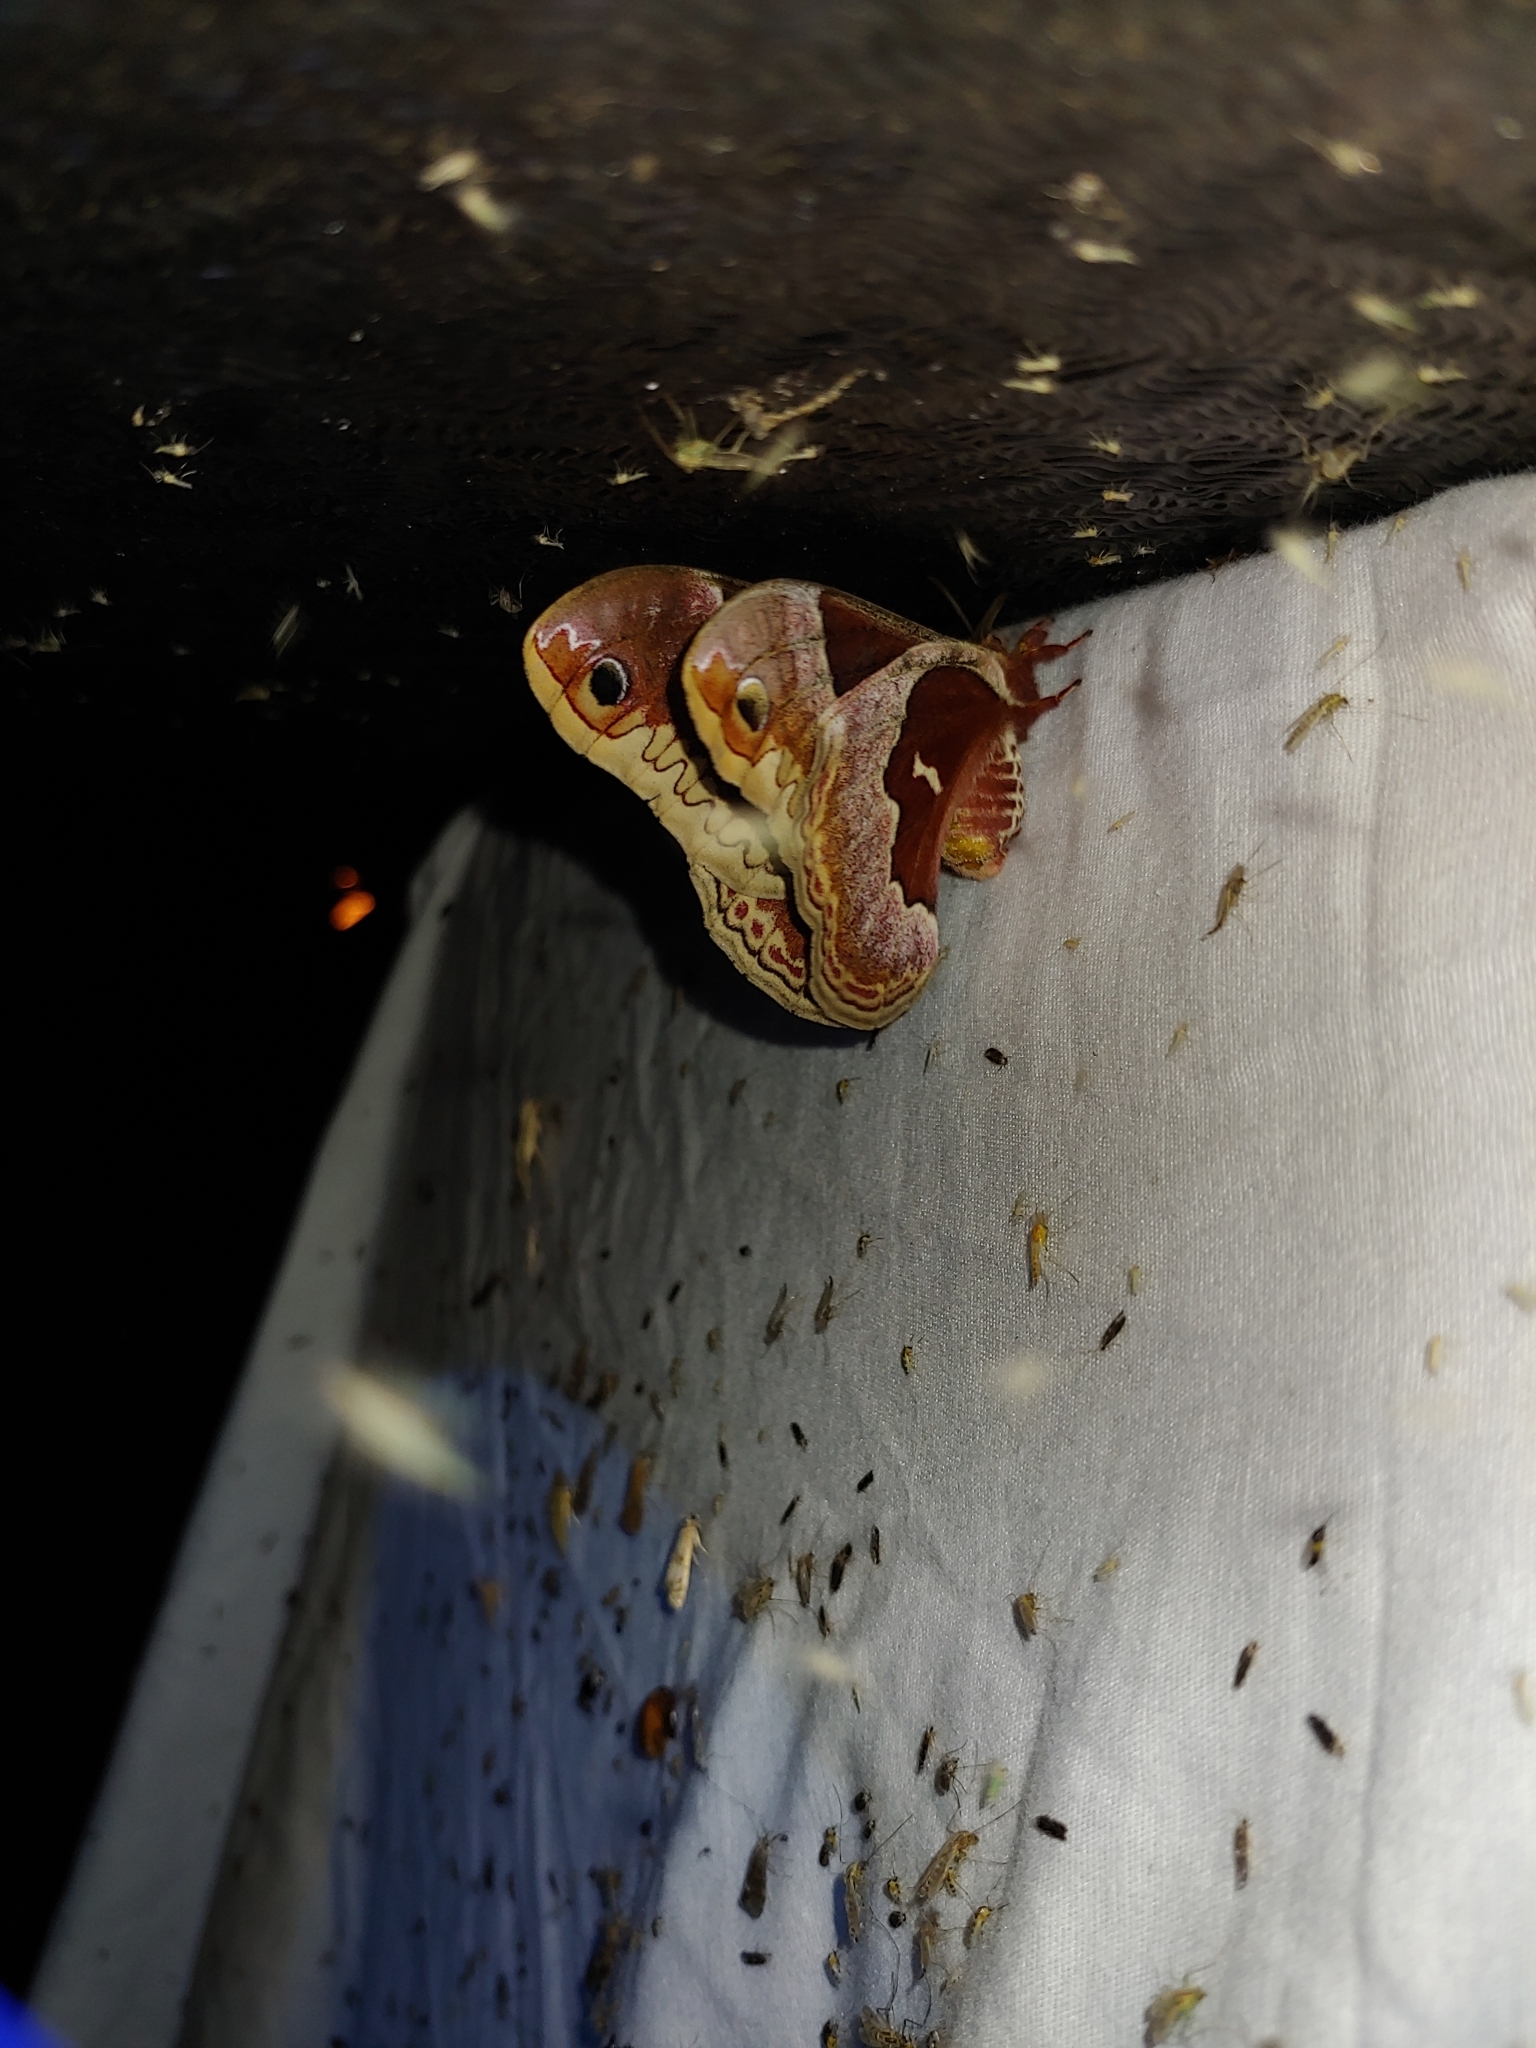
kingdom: Animalia
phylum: Arthropoda
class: Insecta
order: Lepidoptera
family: Saturniidae
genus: Callosamia
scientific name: Callosamia promethea
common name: Promethea silkmoth
